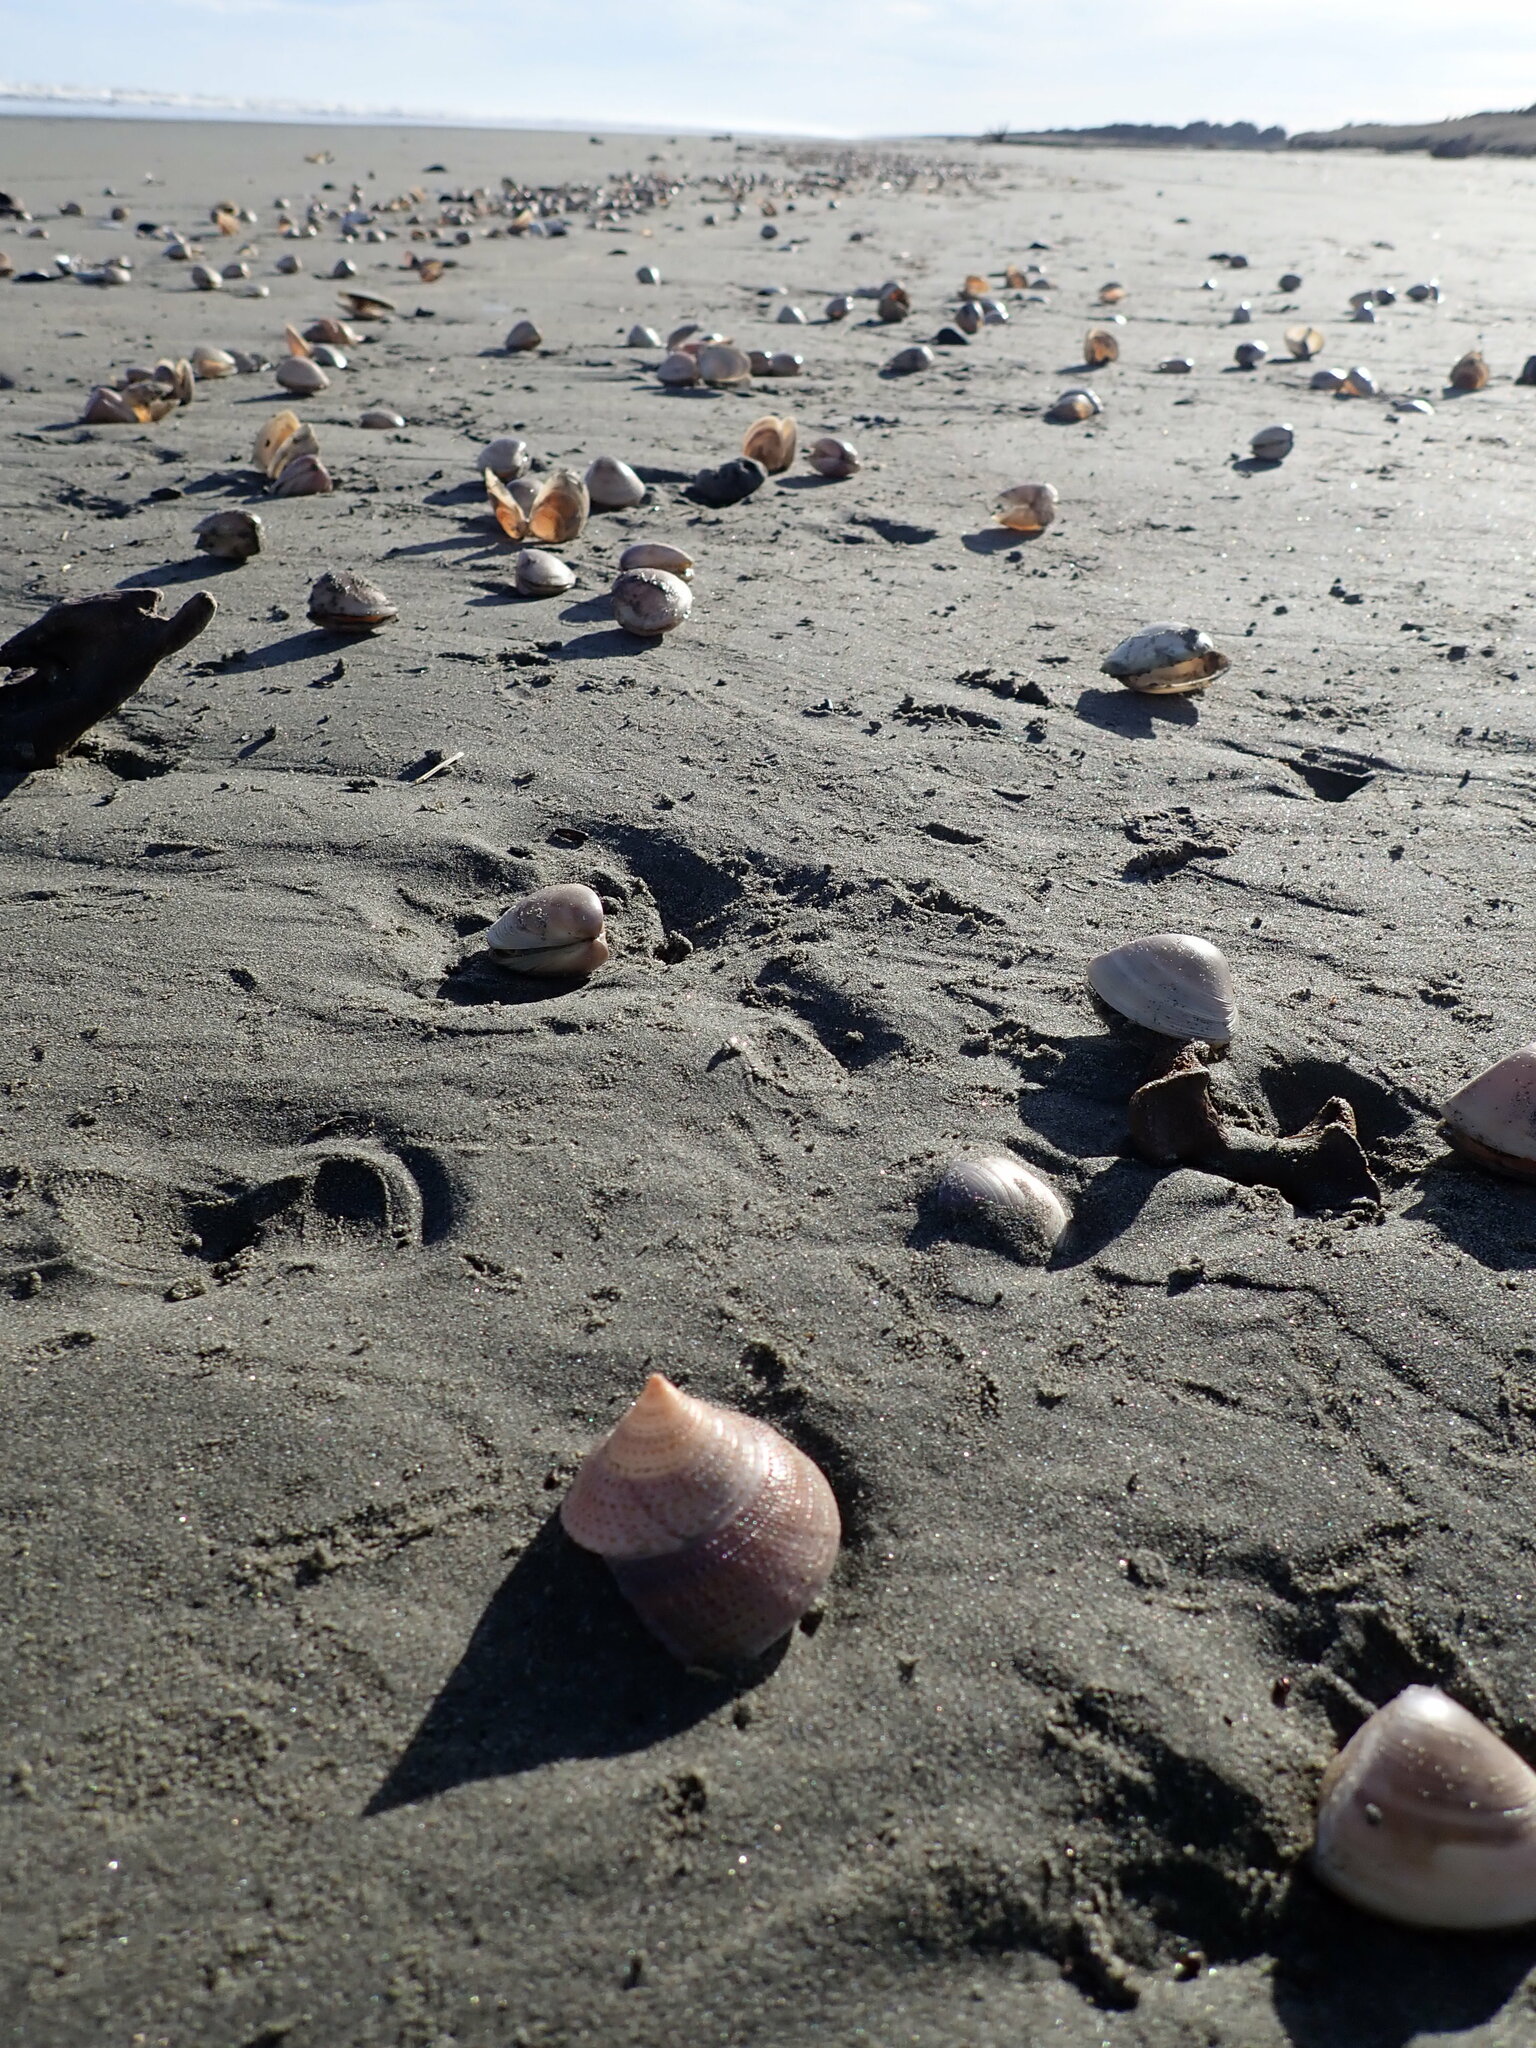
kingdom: Animalia
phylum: Mollusca
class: Gastropoda
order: Trochida
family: Calliostomatidae
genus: Maurea
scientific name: Maurea selecta
